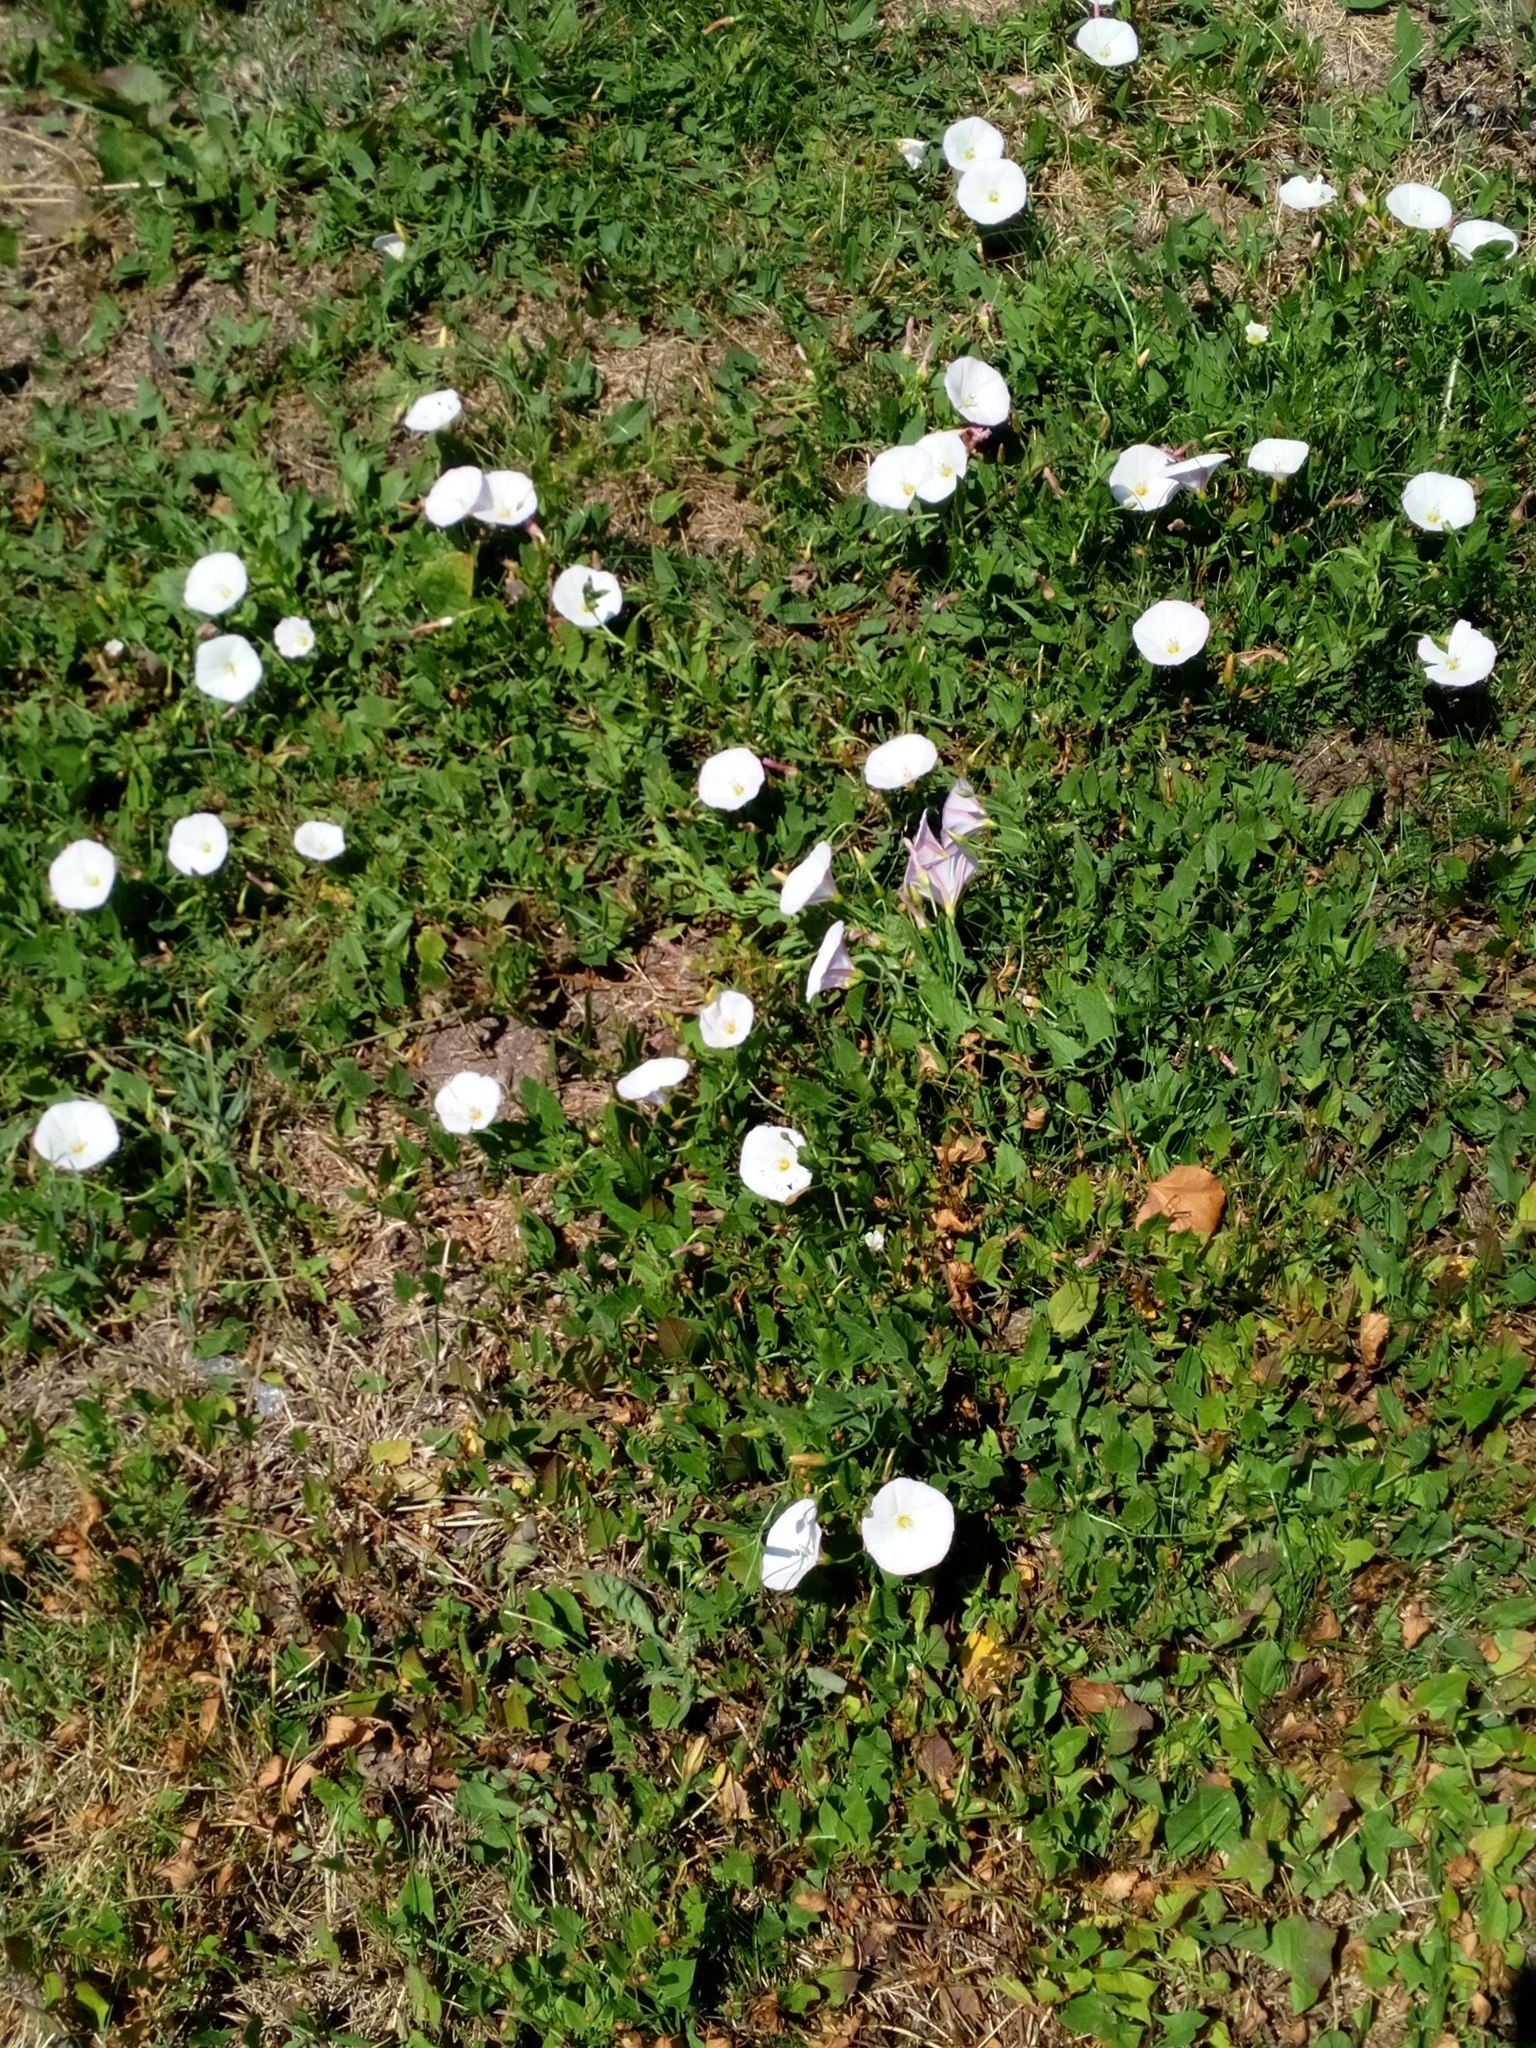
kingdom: Plantae
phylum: Tracheophyta
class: Magnoliopsida
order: Solanales
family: Convolvulaceae
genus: Convolvulus
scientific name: Convolvulus arvensis
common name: Field bindweed
